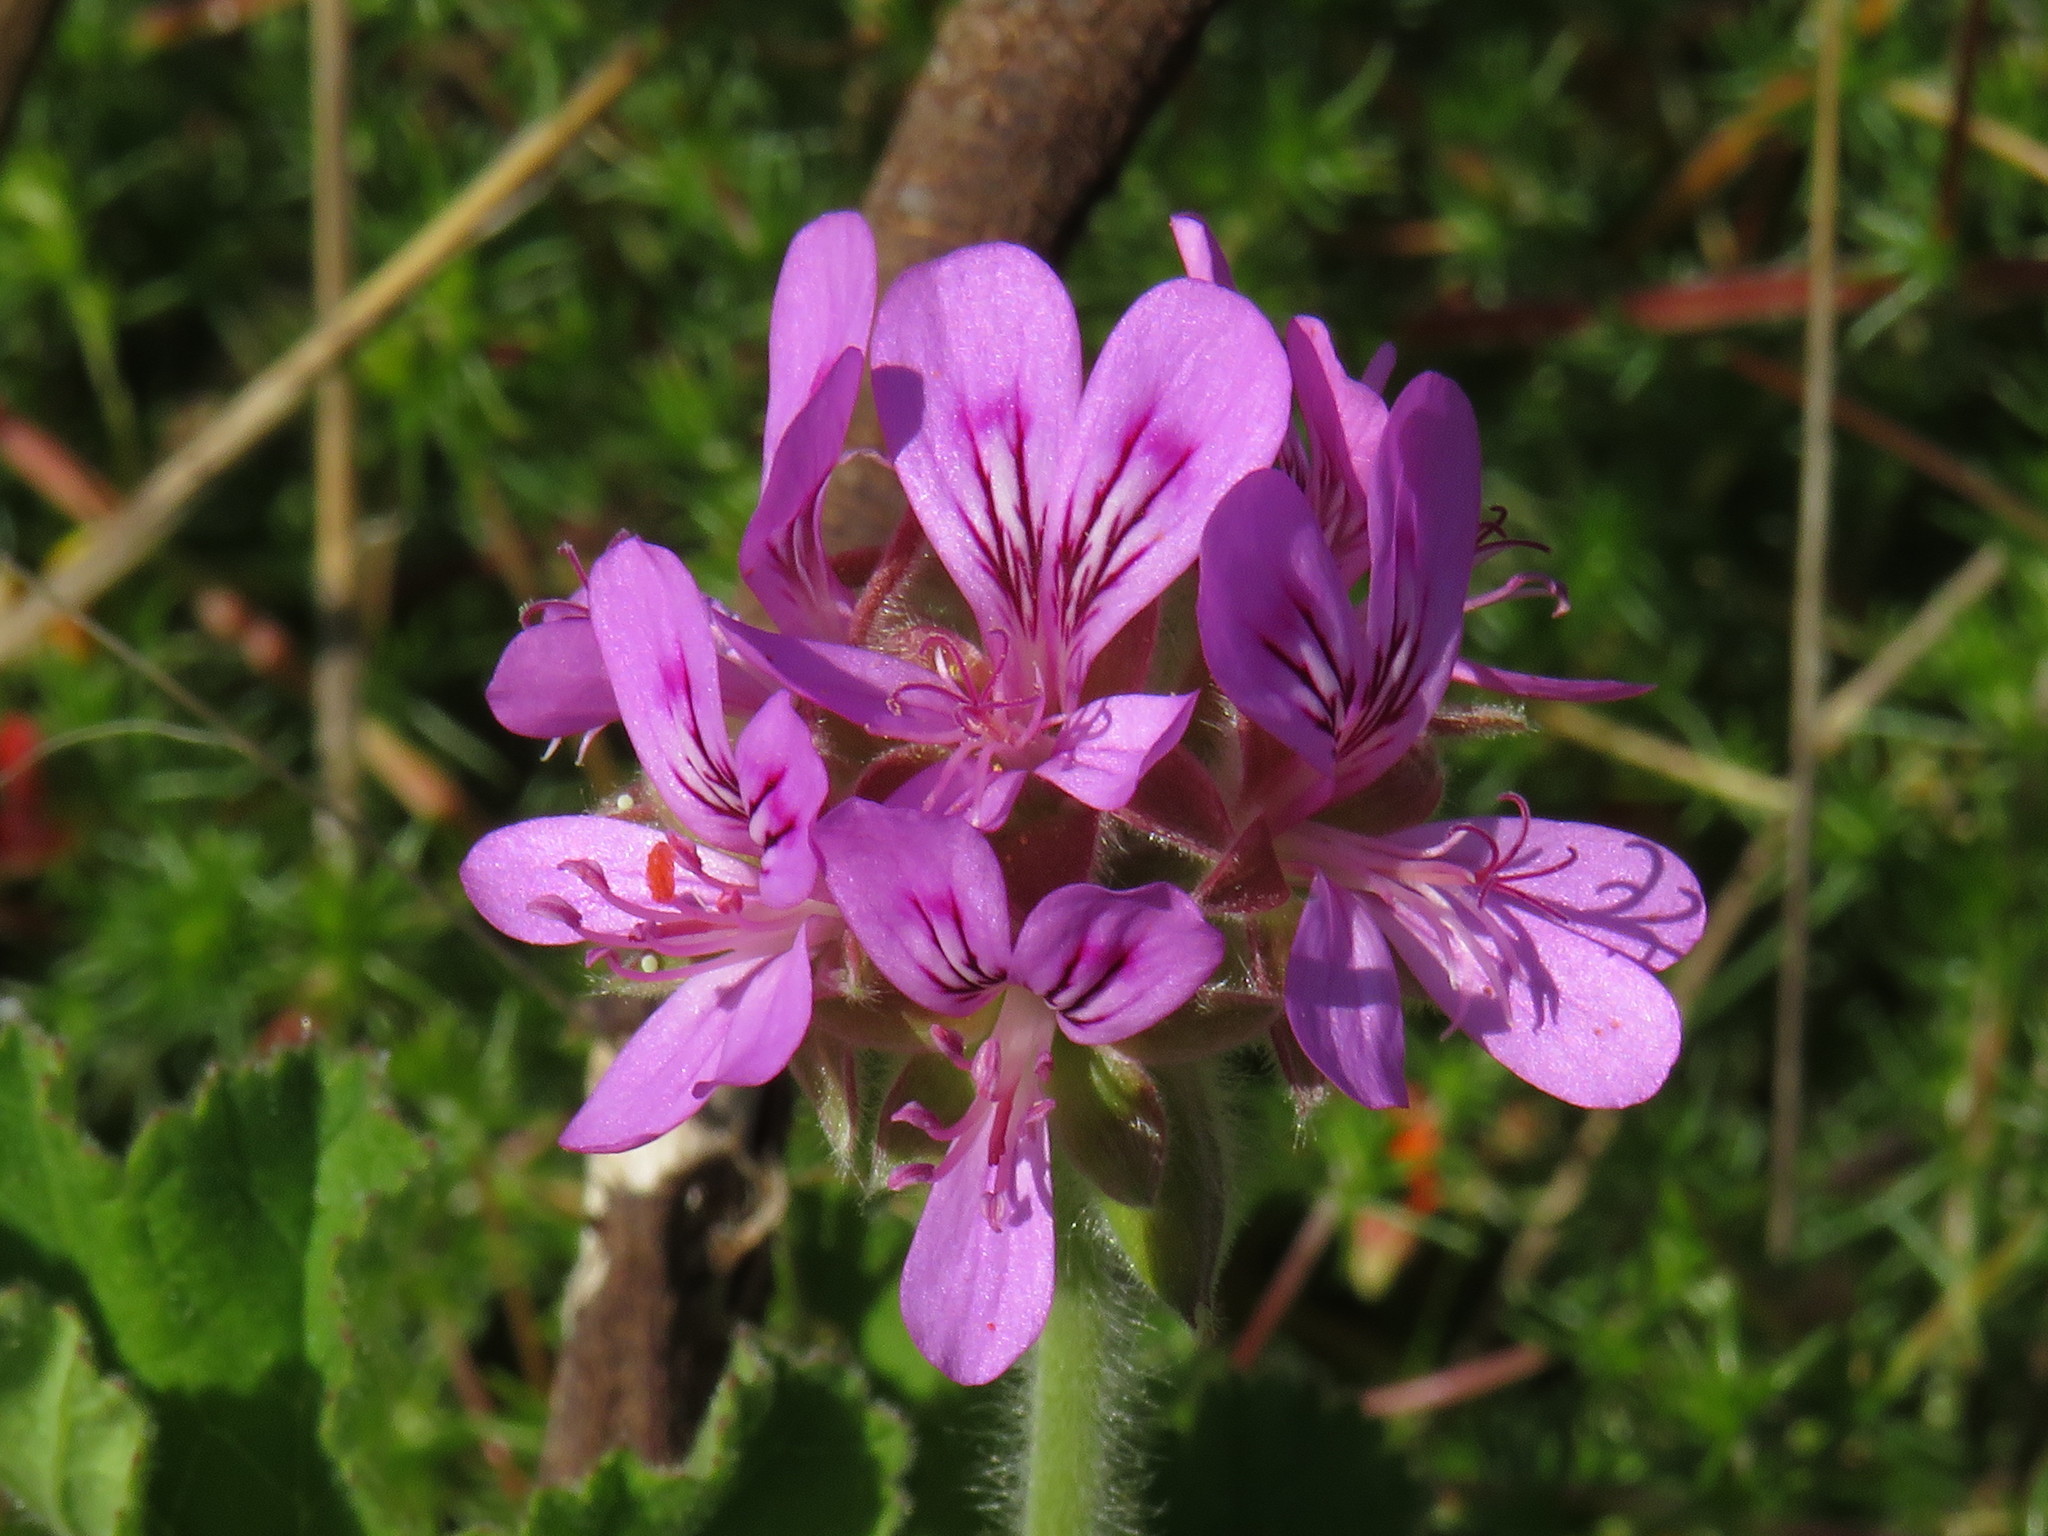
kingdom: Plantae
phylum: Tracheophyta
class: Magnoliopsida
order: Geraniales
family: Geraniaceae
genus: Pelargonium
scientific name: Pelargonium capitatum
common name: Rose scented geranium
